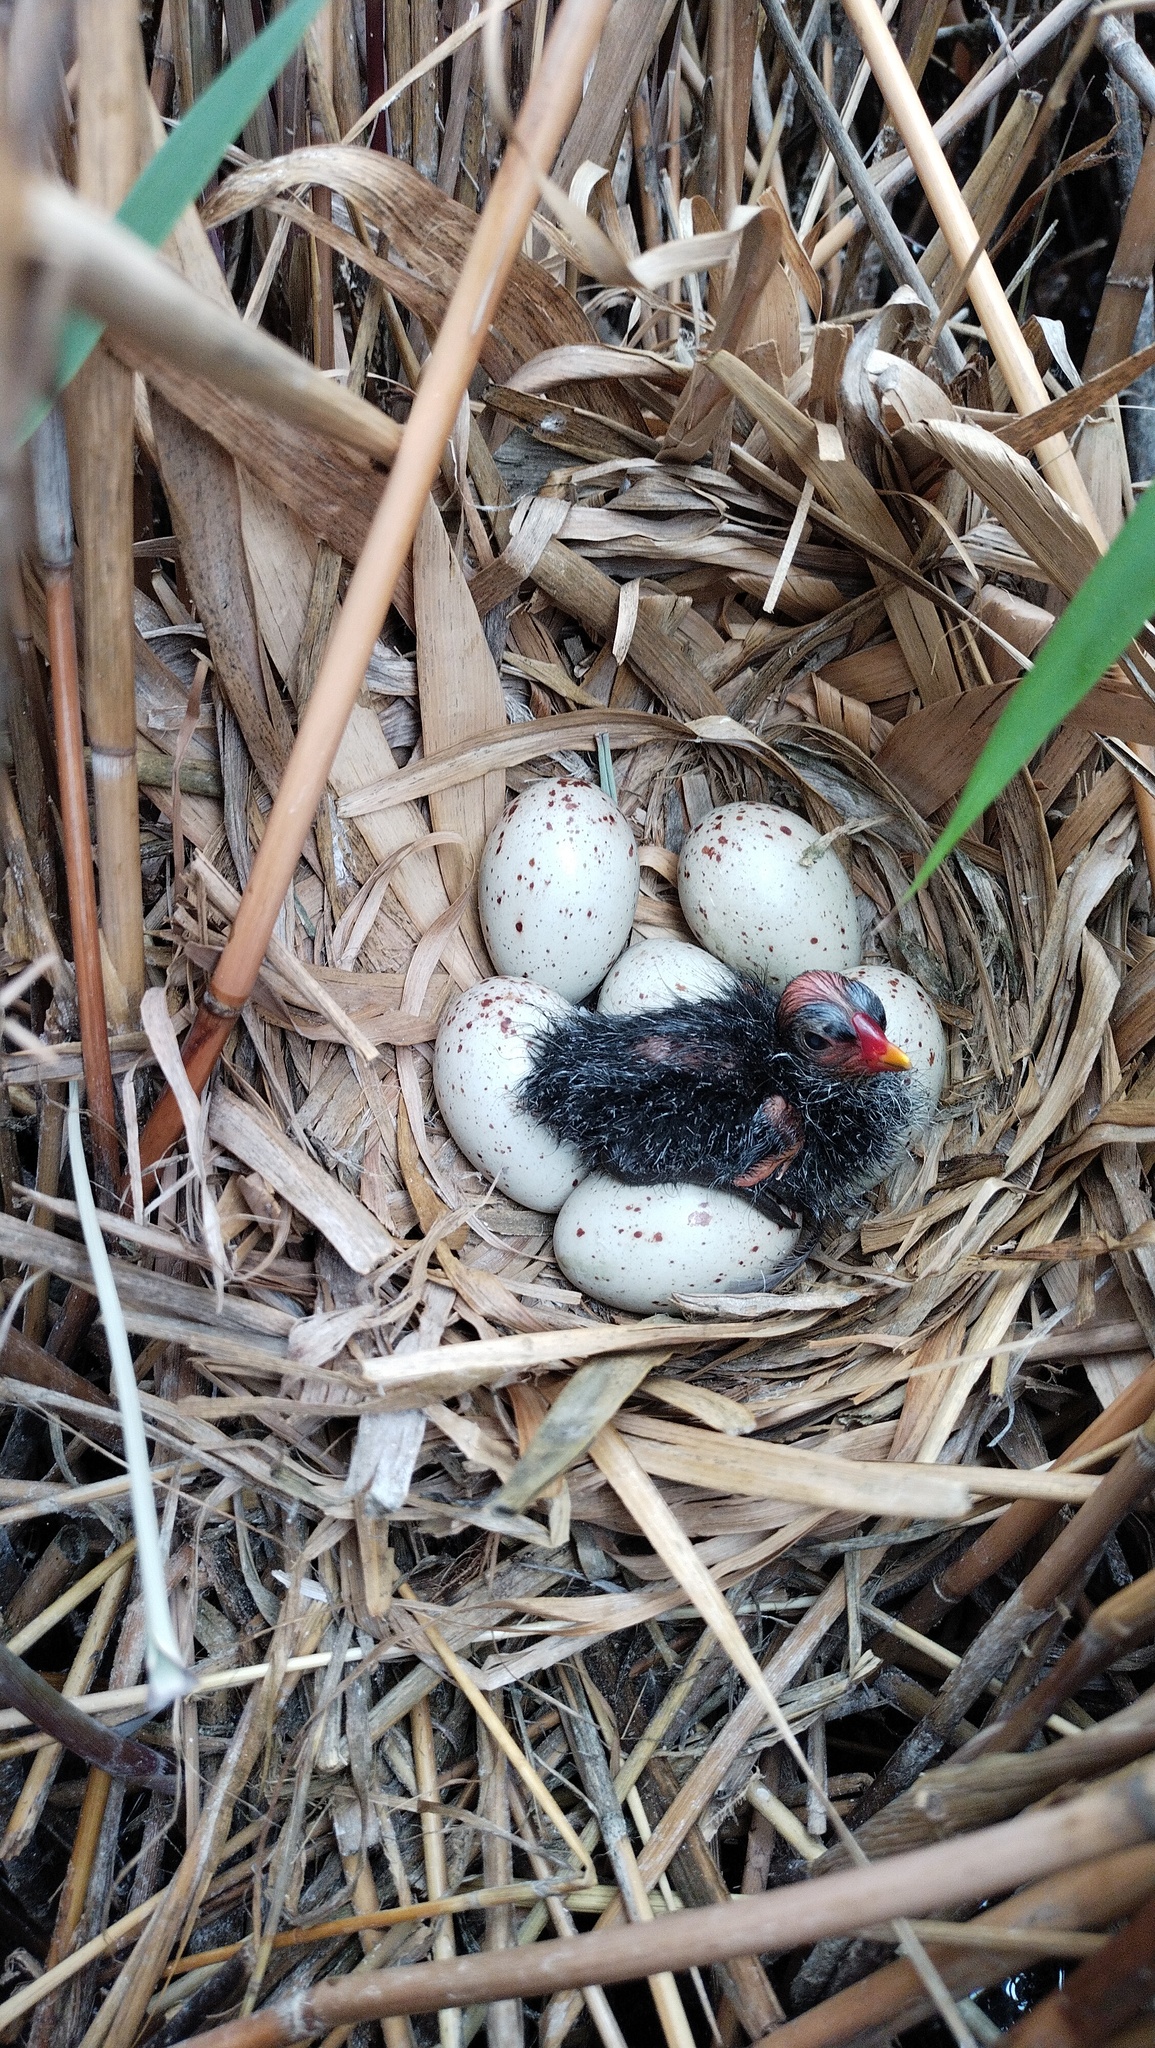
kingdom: Animalia
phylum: Chordata
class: Aves
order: Gruiformes
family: Rallidae
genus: Gallinula
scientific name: Gallinula chloropus
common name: Common moorhen
